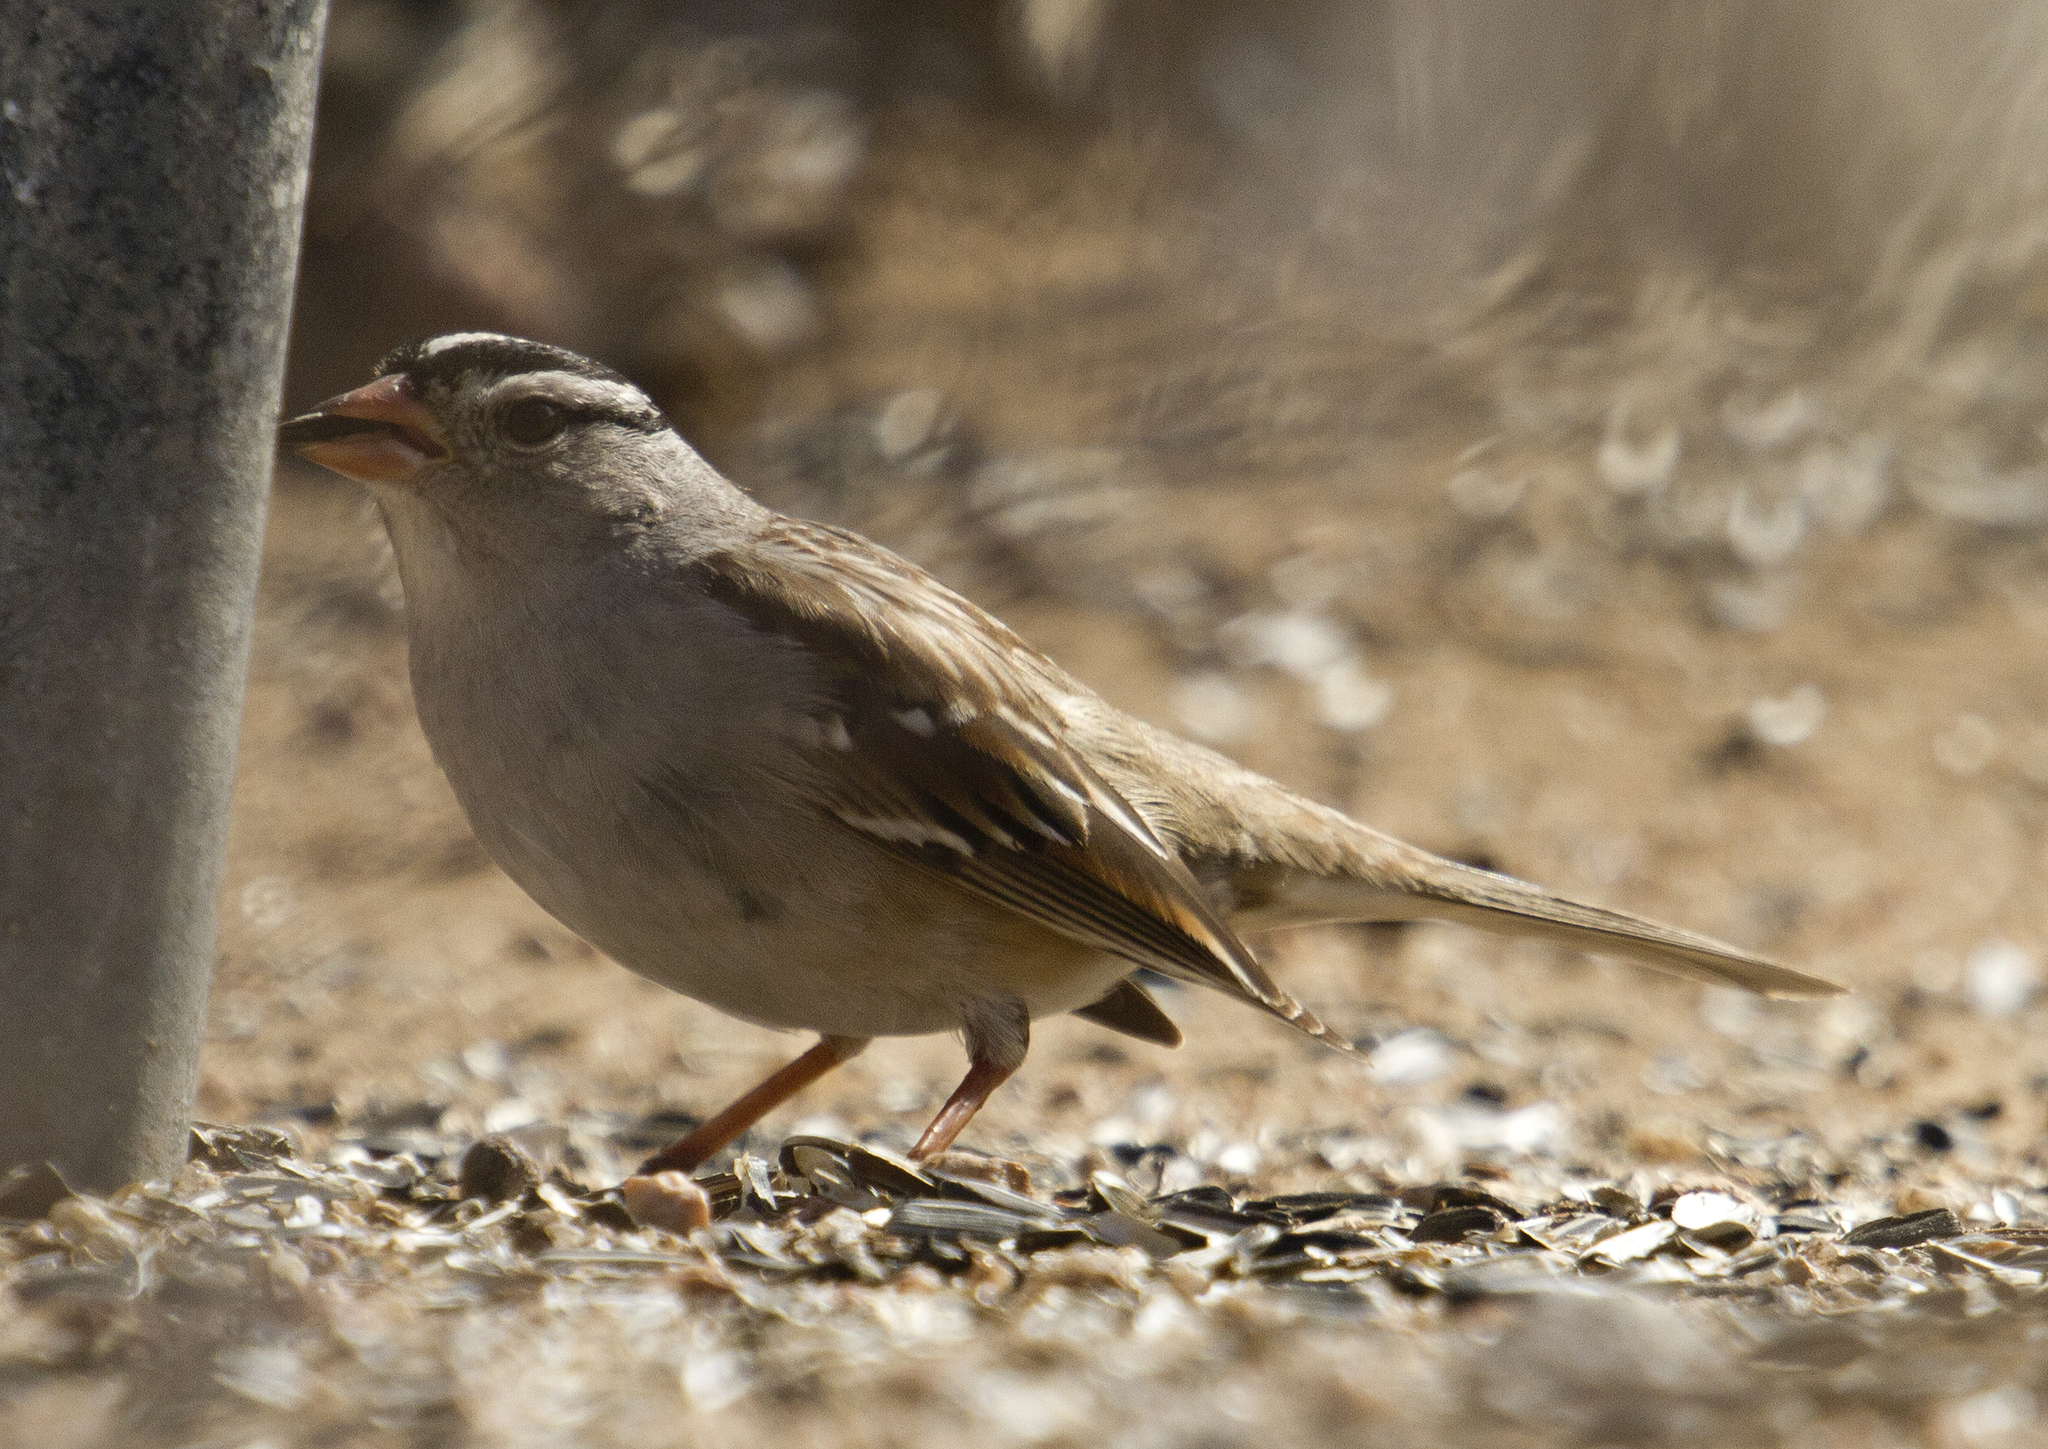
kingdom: Animalia
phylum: Chordata
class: Aves
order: Passeriformes
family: Passerellidae
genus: Zonotrichia
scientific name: Zonotrichia leucophrys
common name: White-crowned sparrow
